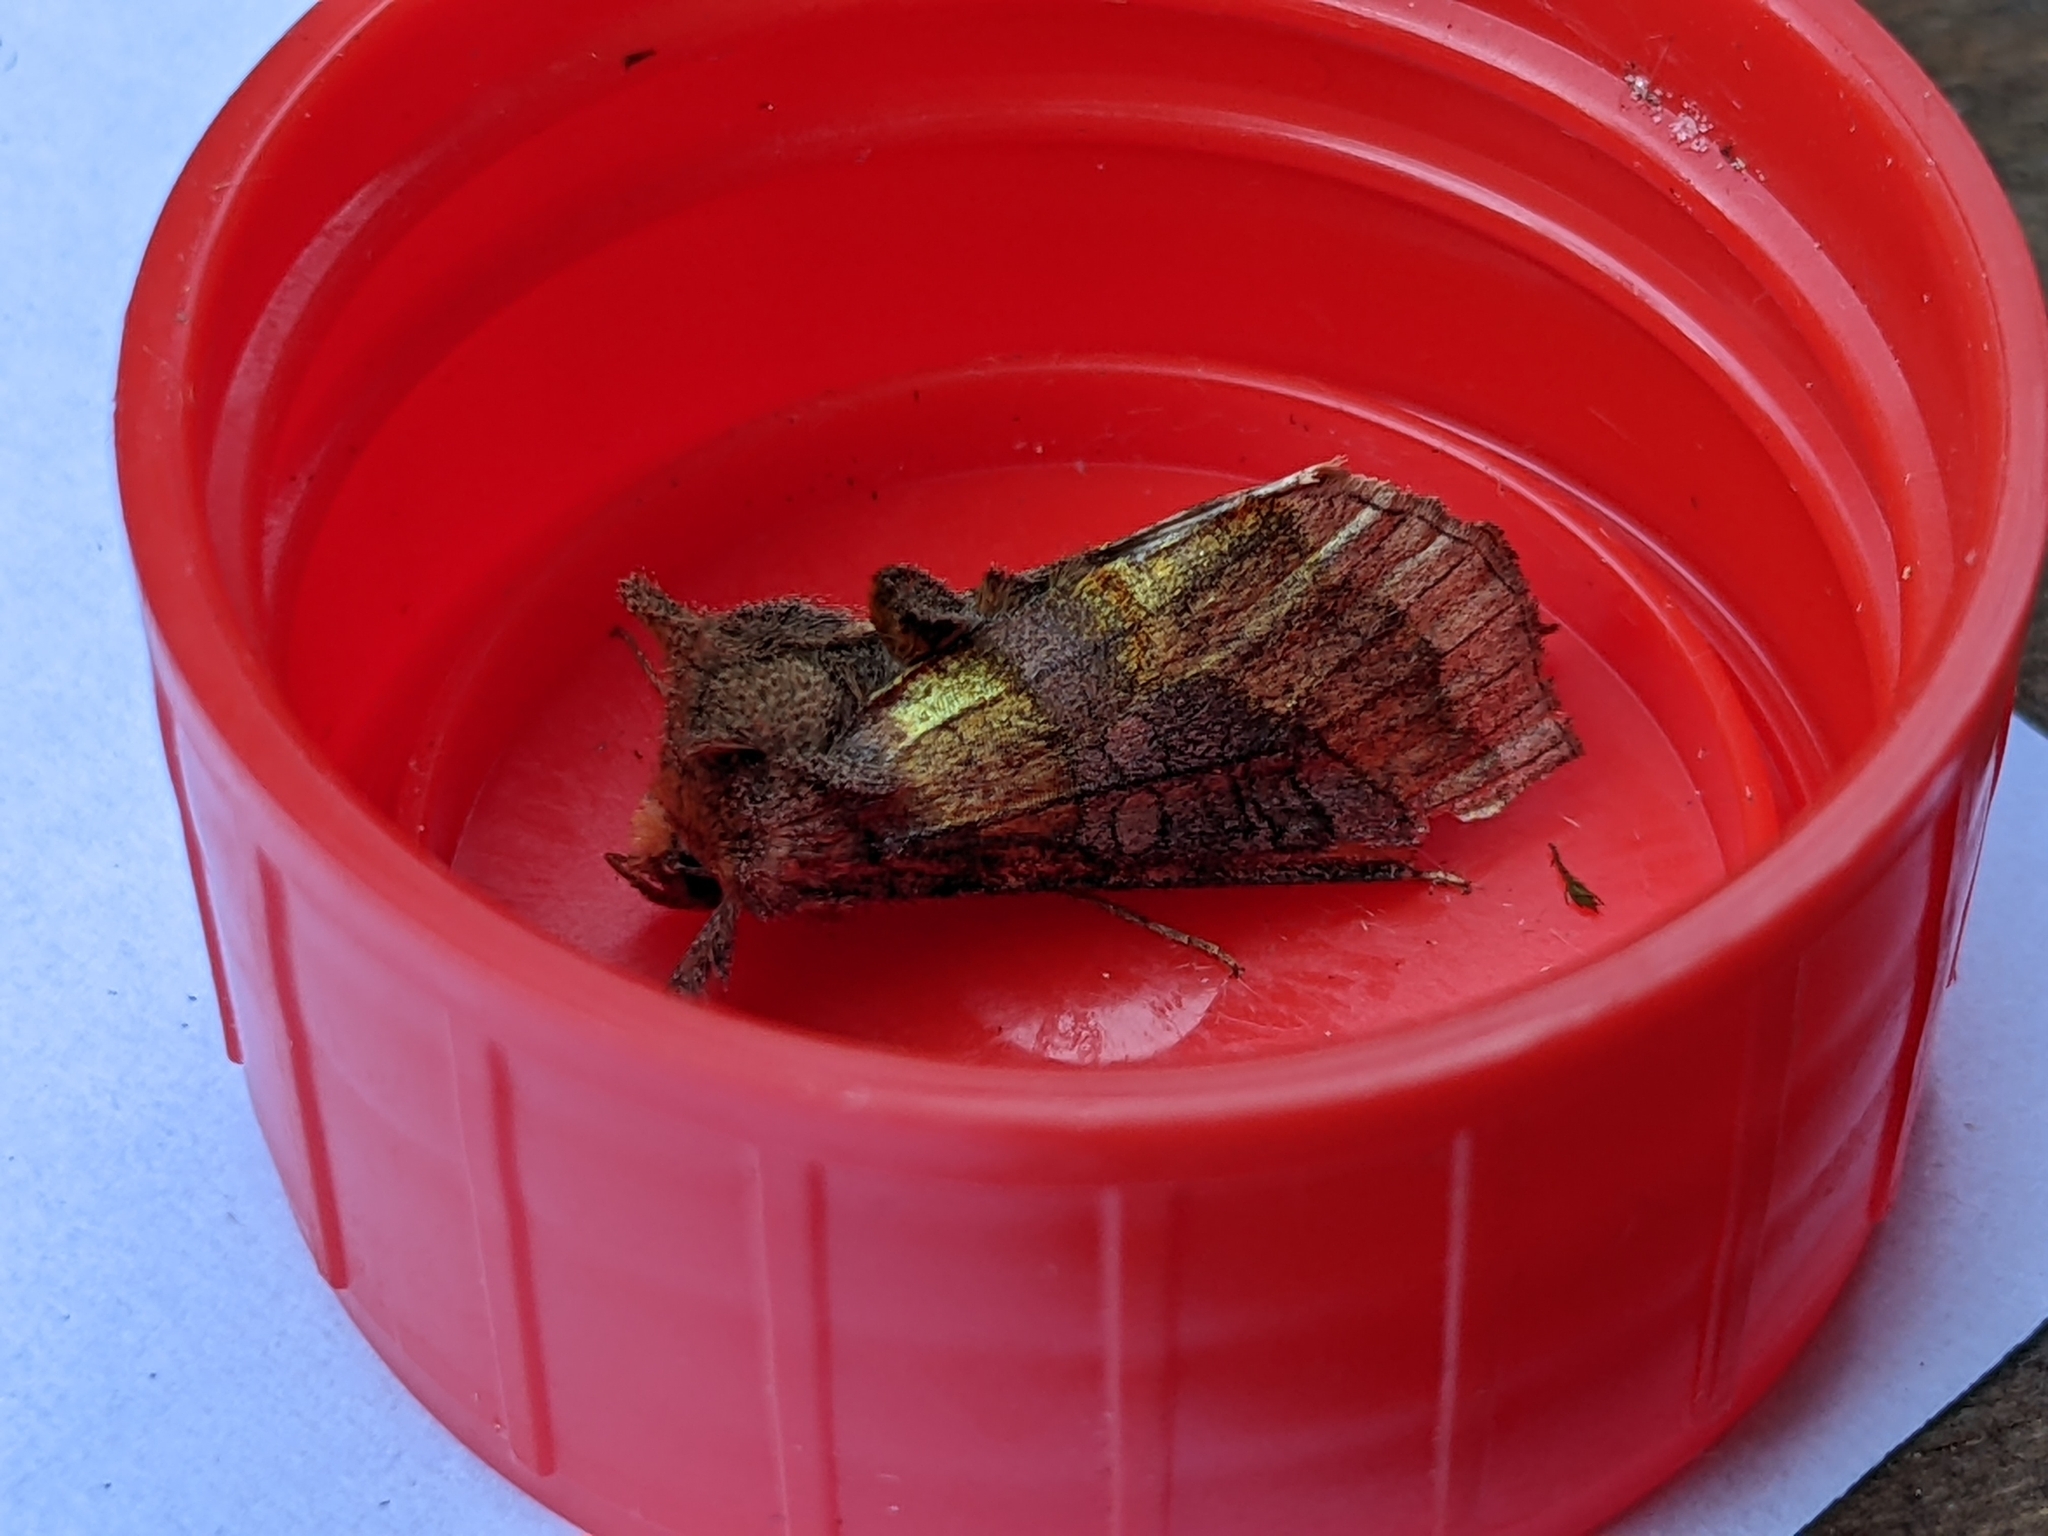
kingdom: Animalia
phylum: Arthropoda
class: Insecta
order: Lepidoptera
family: Noctuidae
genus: Diachrysia
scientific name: Diachrysia chrysitis
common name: Burnished brass
